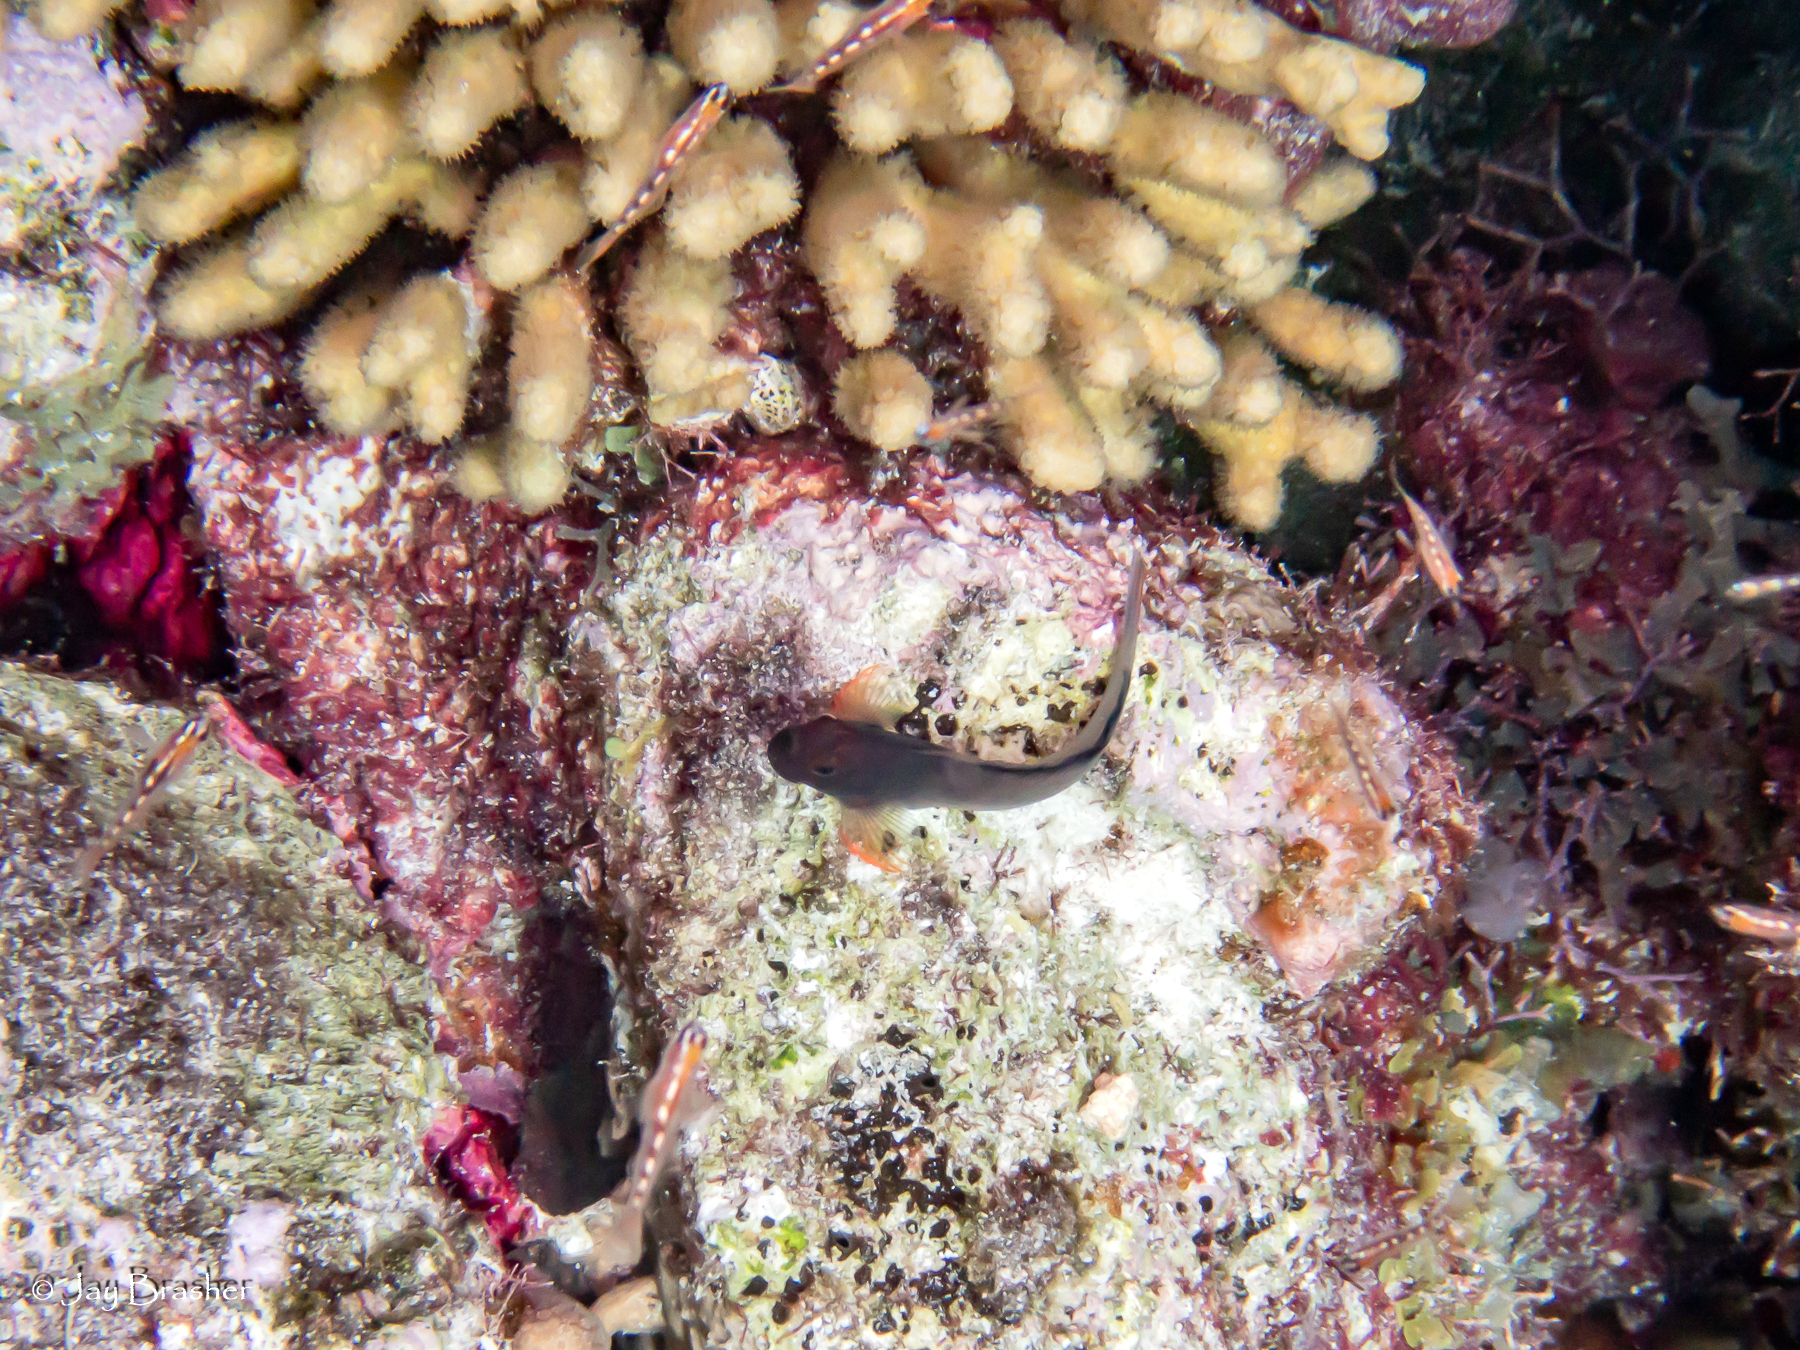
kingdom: Animalia
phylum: Chordata
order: Perciformes
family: Blenniidae
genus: Ophioblennius
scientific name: Ophioblennius macclurei
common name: Redlip blenny
